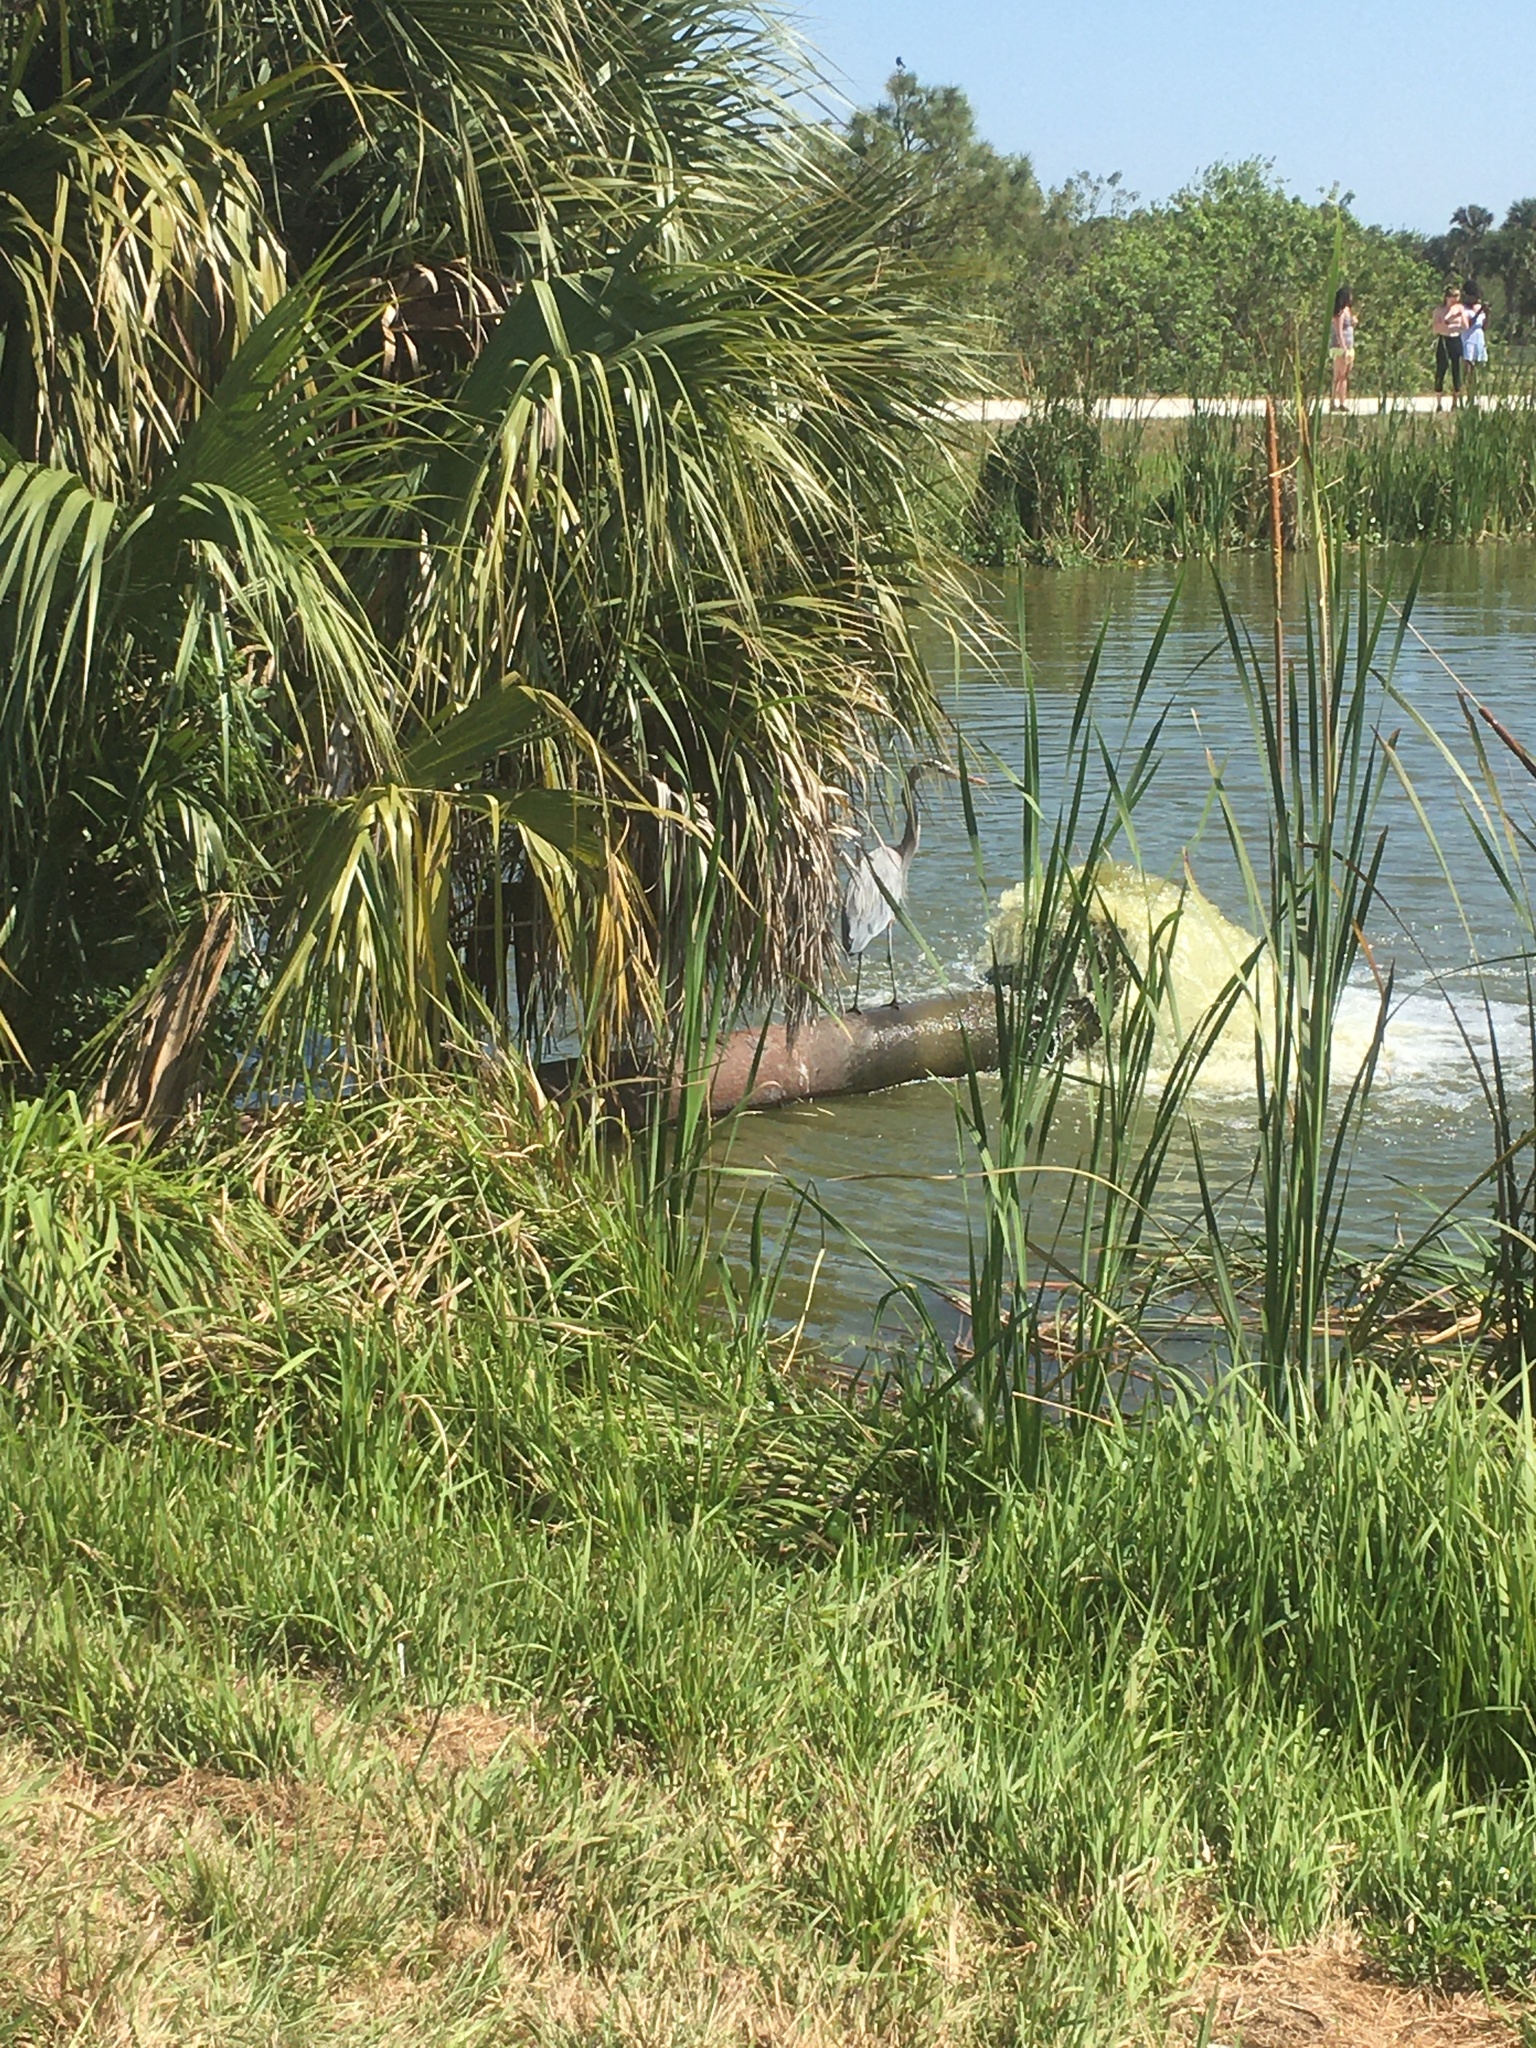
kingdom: Animalia
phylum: Chordata
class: Aves
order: Pelecaniformes
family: Ardeidae
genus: Ardea
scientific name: Ardea herodias
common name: Great blue heron
